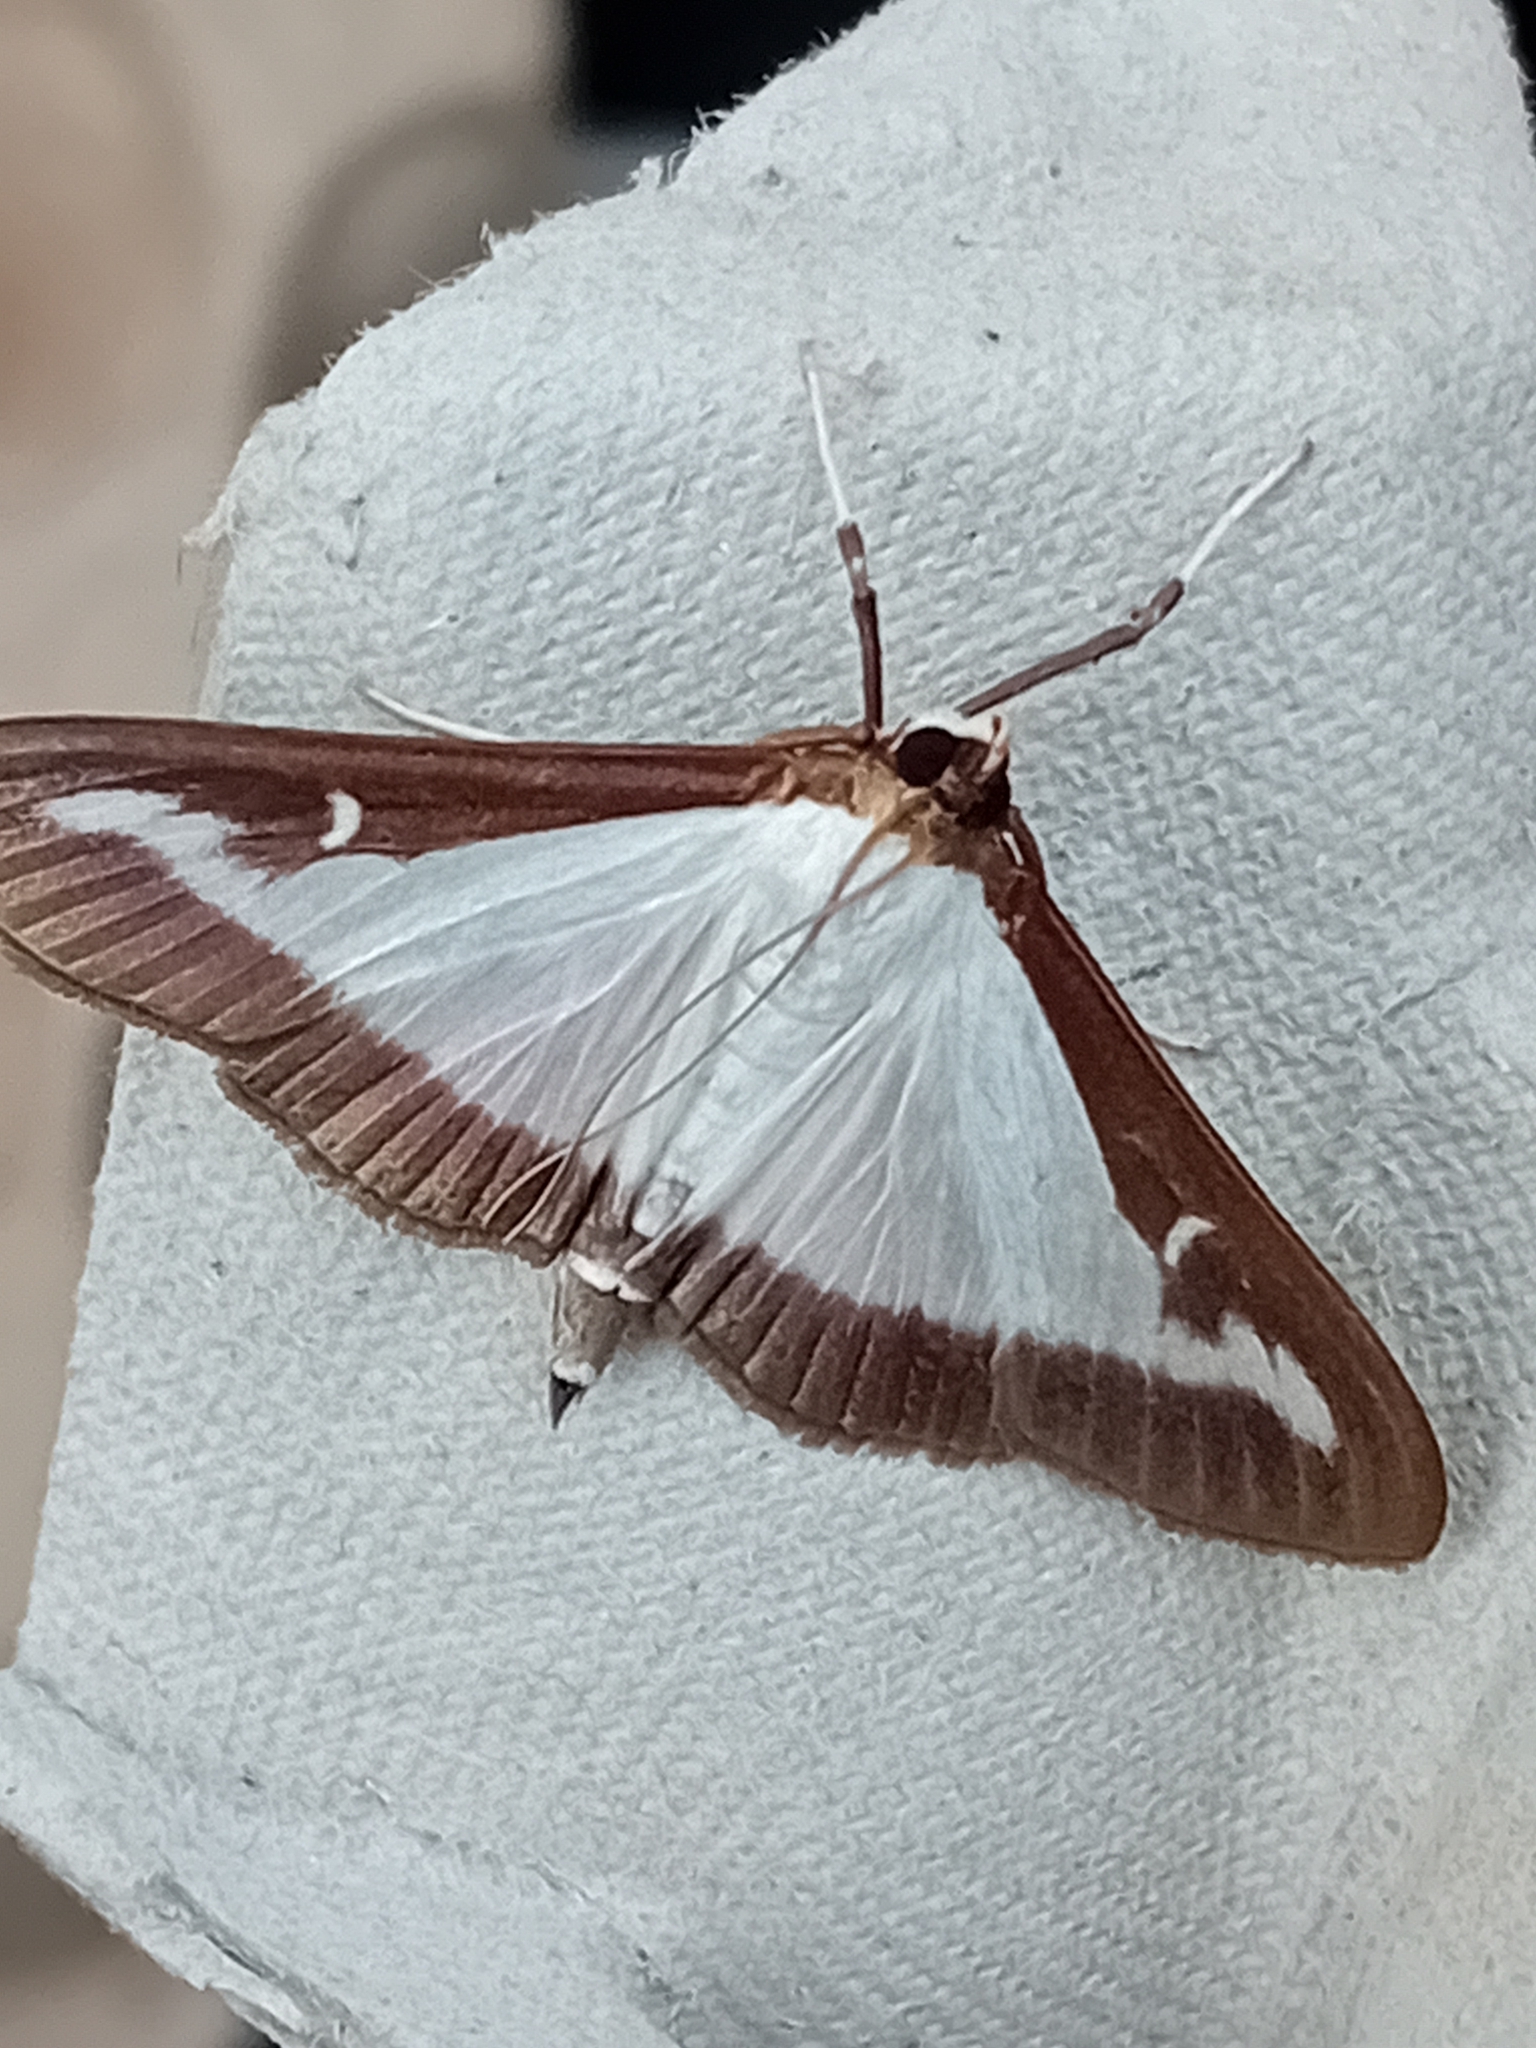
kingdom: Animalia
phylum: Arthropoda
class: Insecta
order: Lepidoptera
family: Crambidae
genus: Cydalima
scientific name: Cydalima perspectalis
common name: Box tree moth
